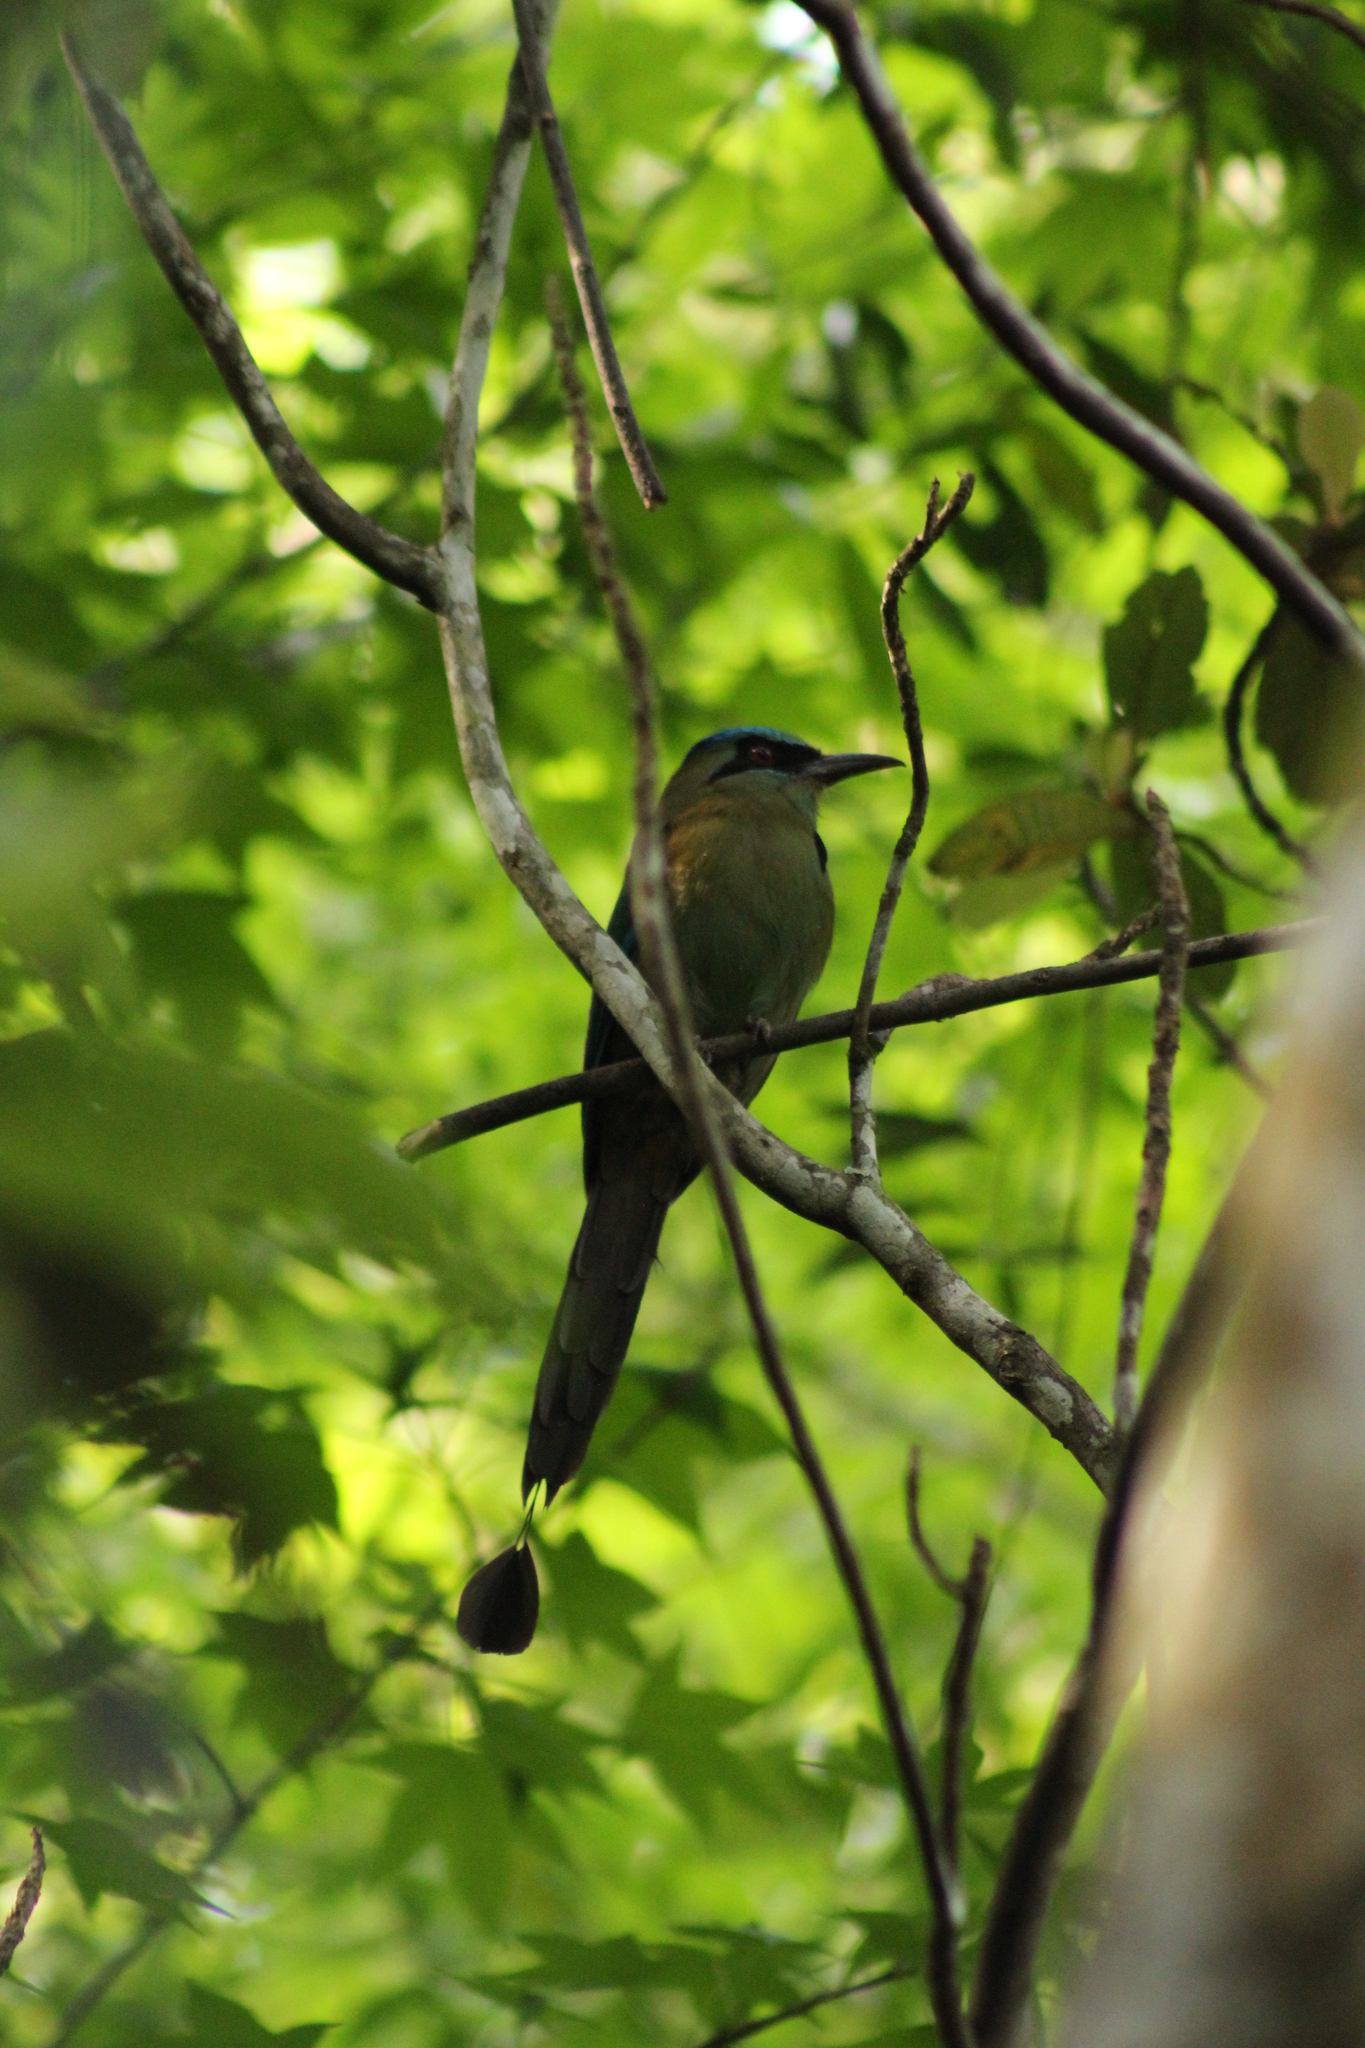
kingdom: Animalia
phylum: Chordata
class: Aves
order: Coraciiformes
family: Momotidae
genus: Momotus
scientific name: Momotus coeruliceps
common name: Blue-capped motmot
